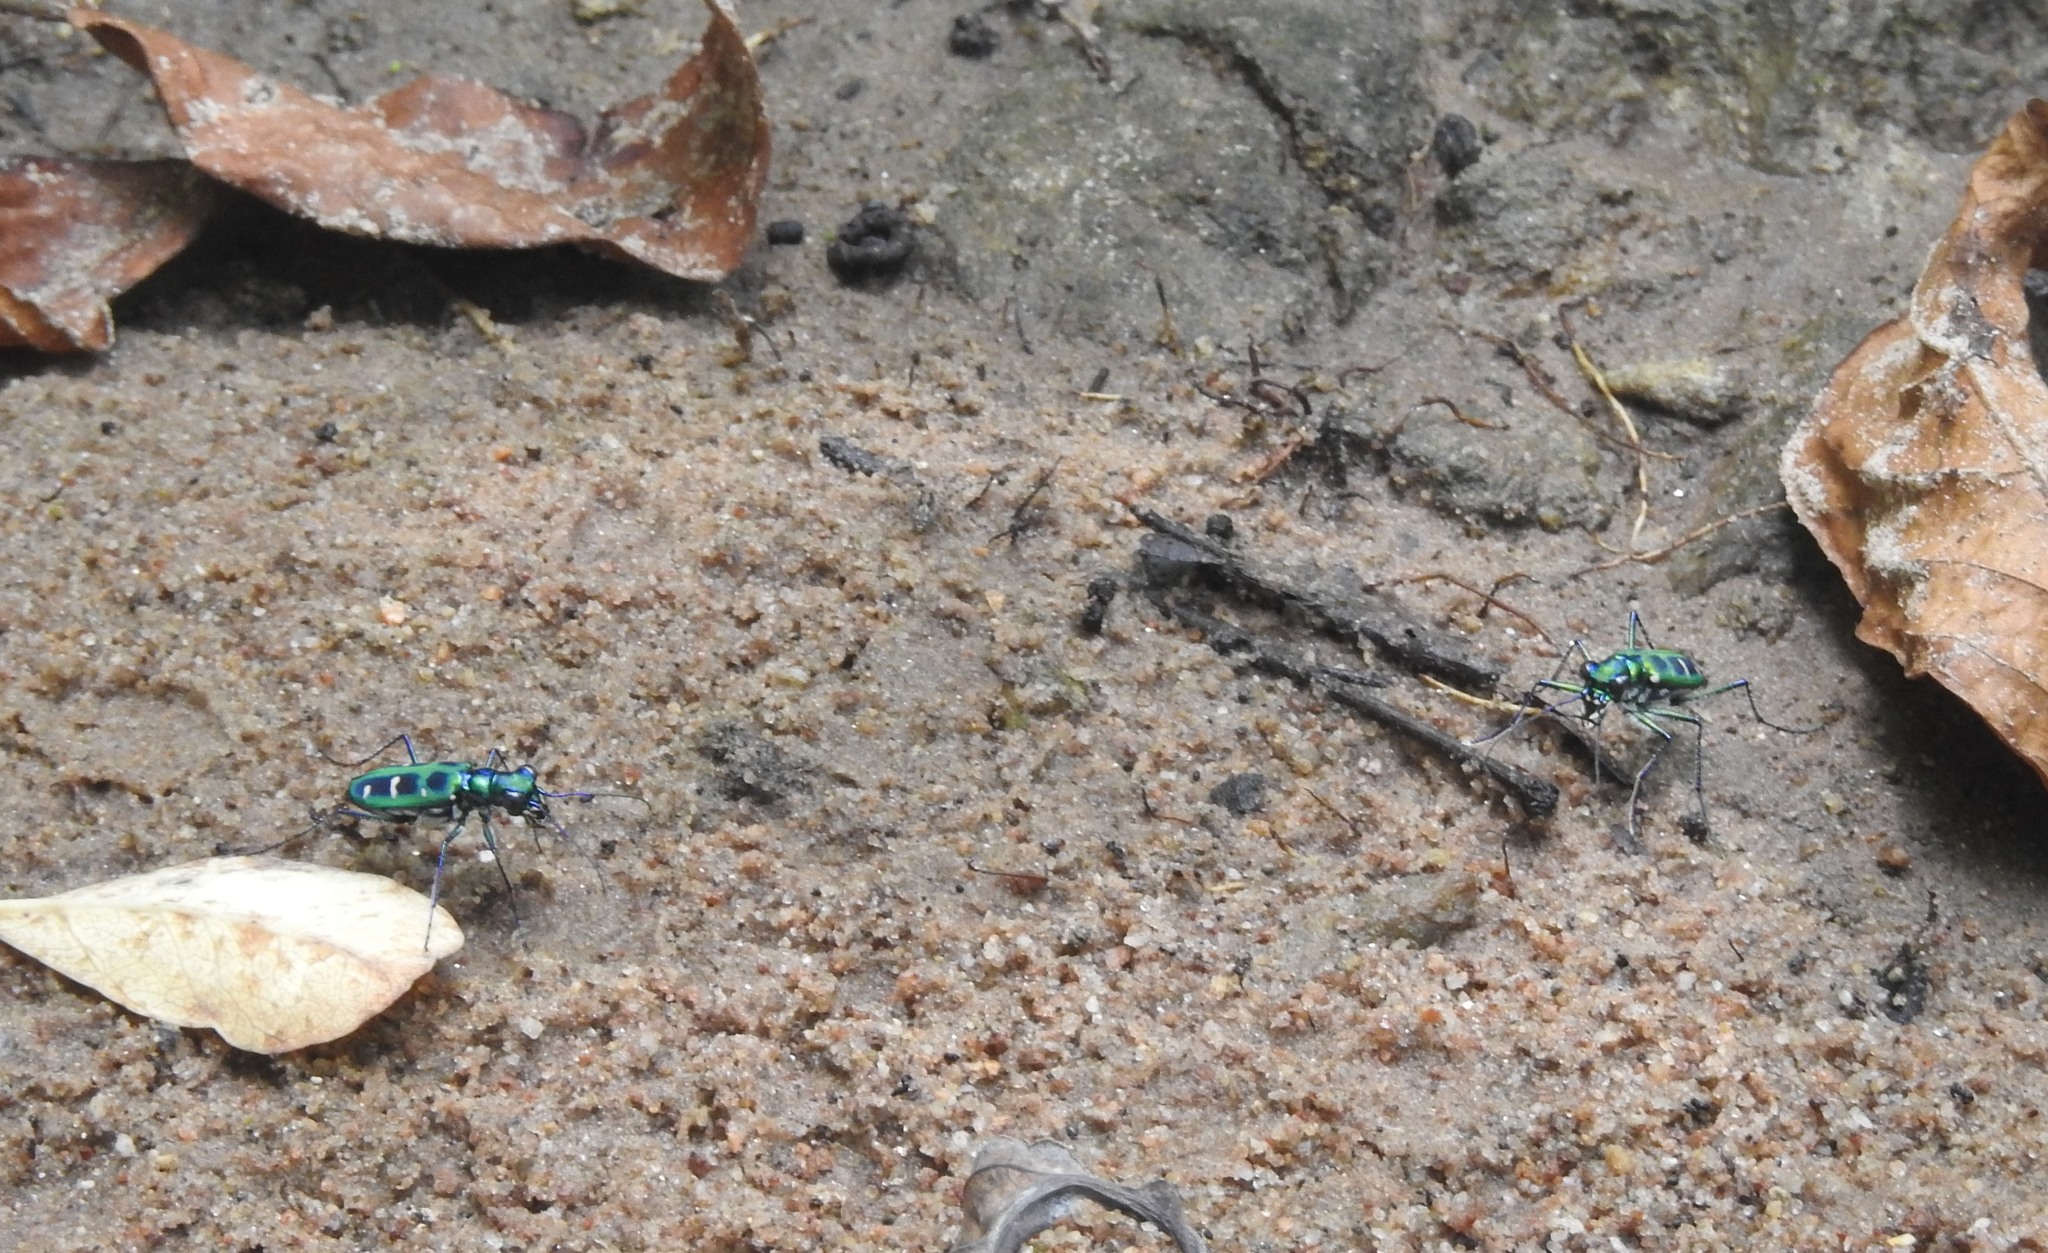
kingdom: Animalia
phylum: Arthropoda
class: Insecta
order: Coleoptera
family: Carabidae
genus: Cicindela
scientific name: Cicindela barmanica
